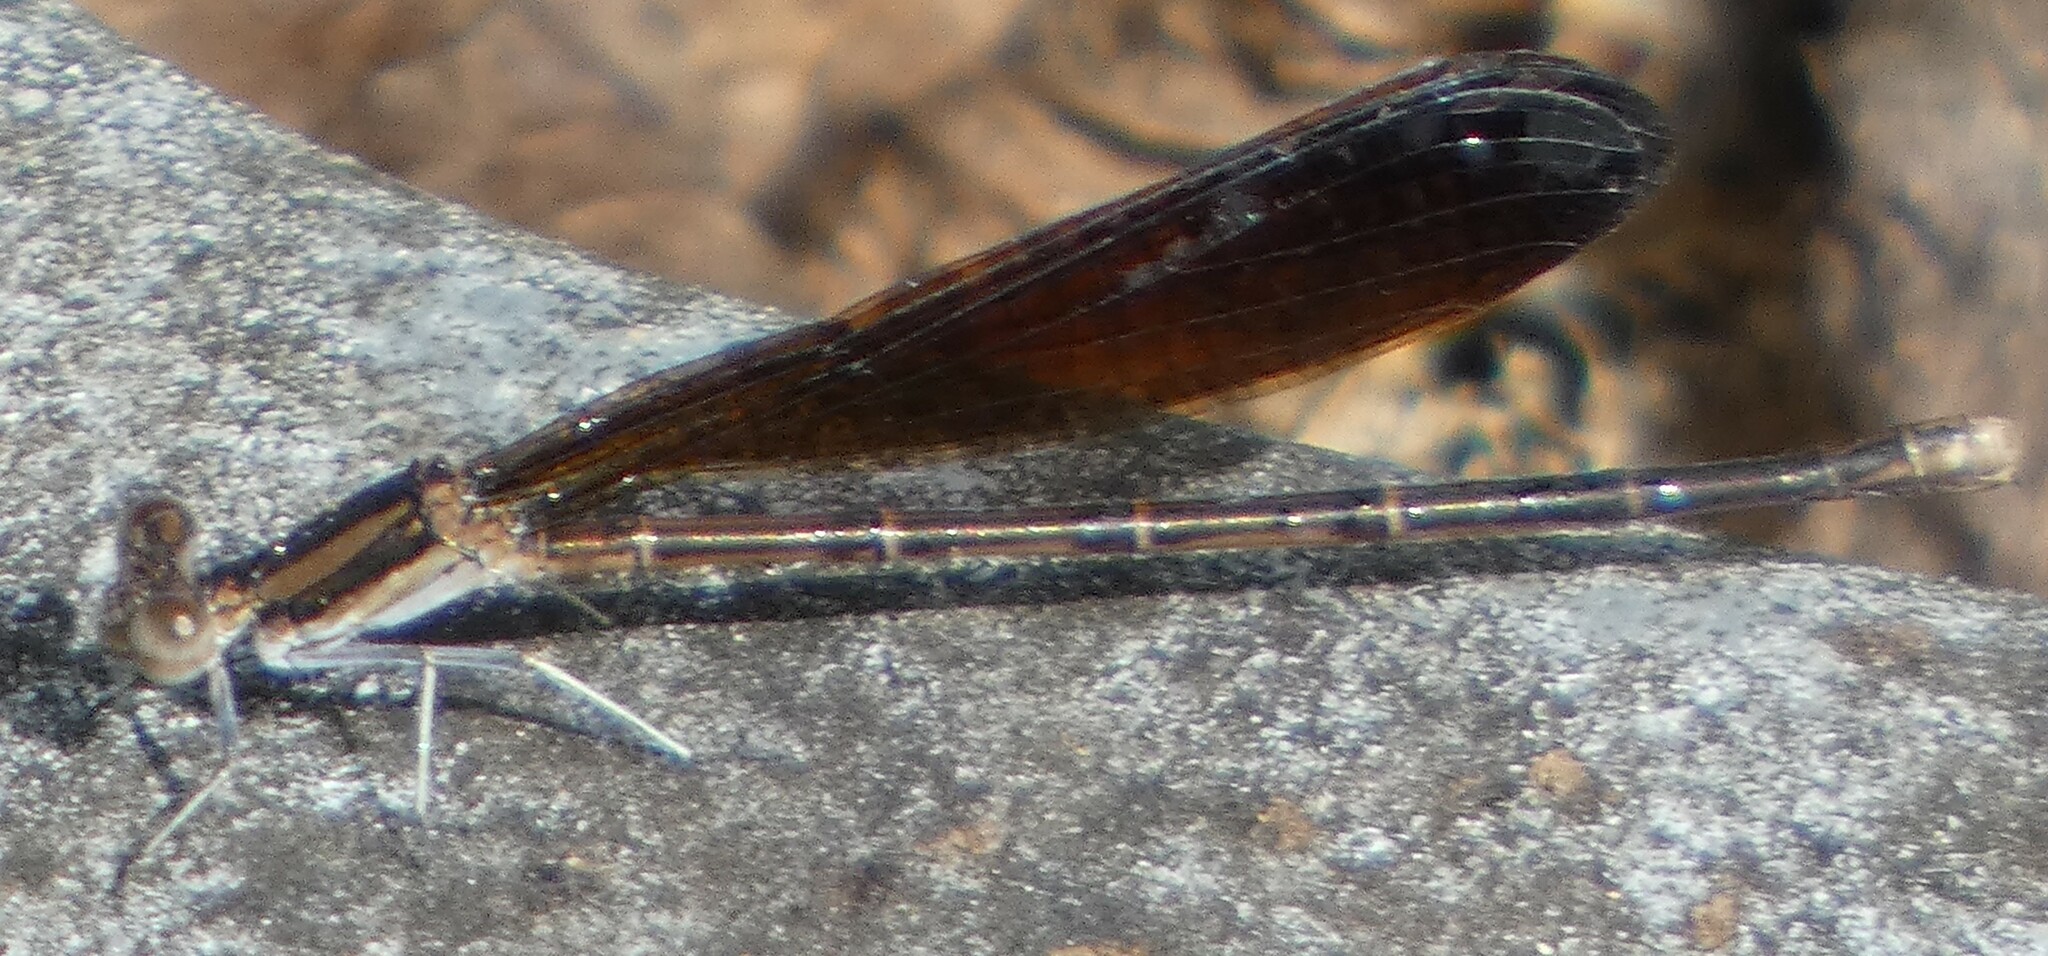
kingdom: Animalia
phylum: Arthropoda
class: Insecta
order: Odonata
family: Coenagrionidae
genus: Argia
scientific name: Argia fumipennis
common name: Variable dancer
